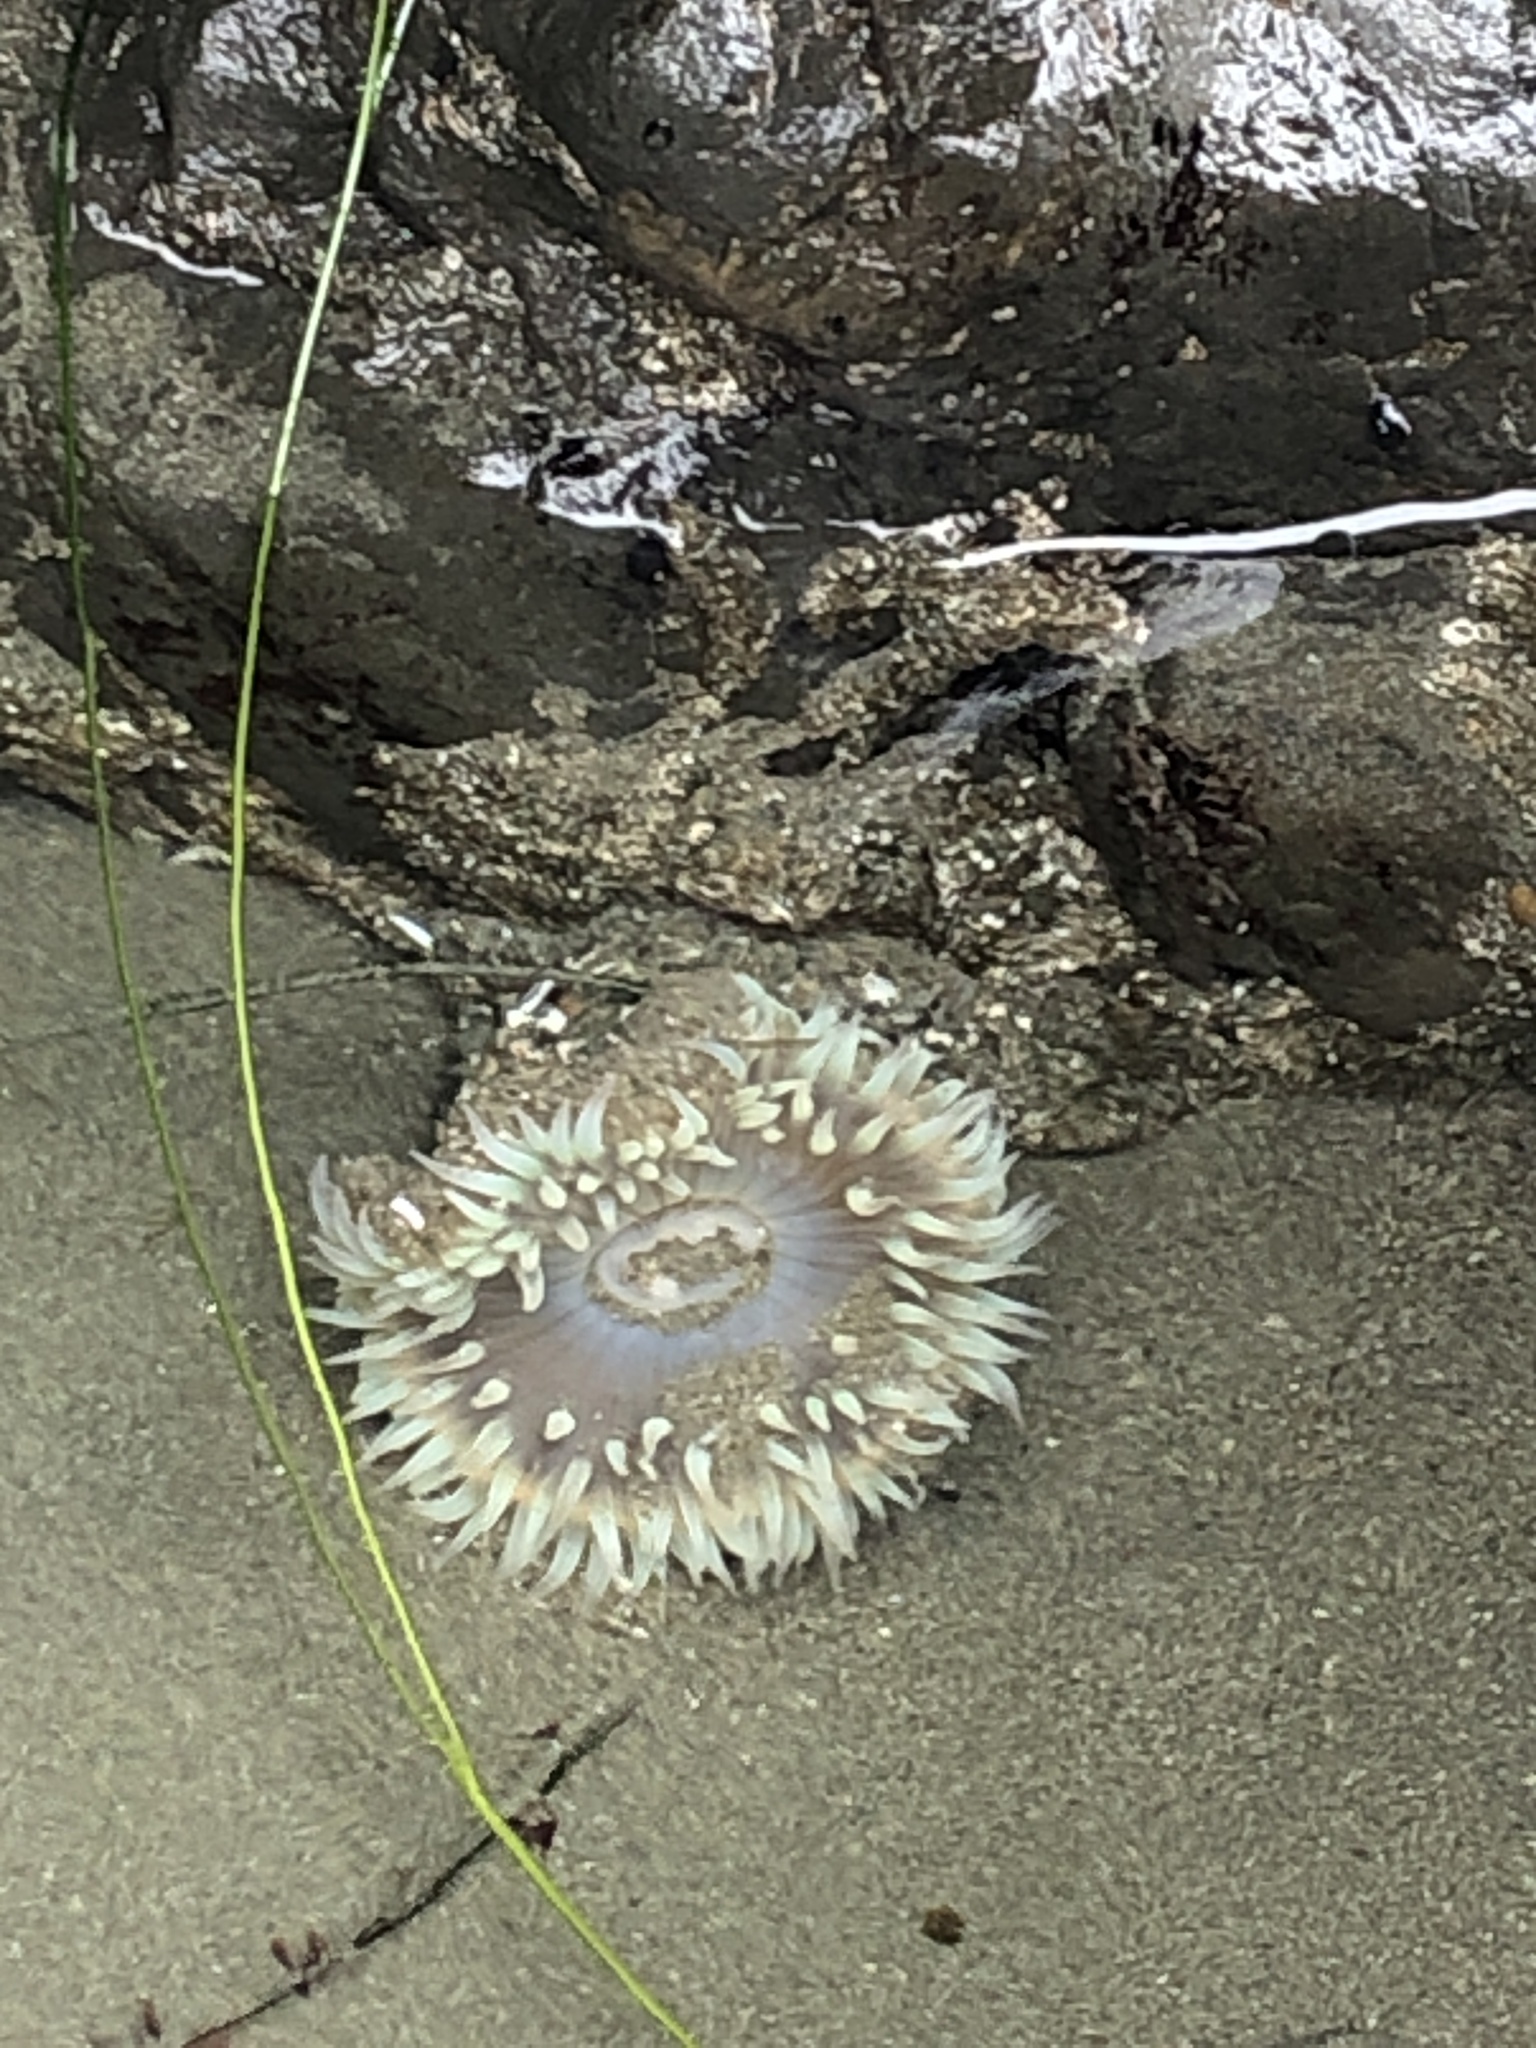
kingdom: Animalia
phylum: Cnidaria
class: Anthozoa
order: Actiniaria
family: Actiniidae
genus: Anthopleura
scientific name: Anthopleura sola
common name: Sun anemone
